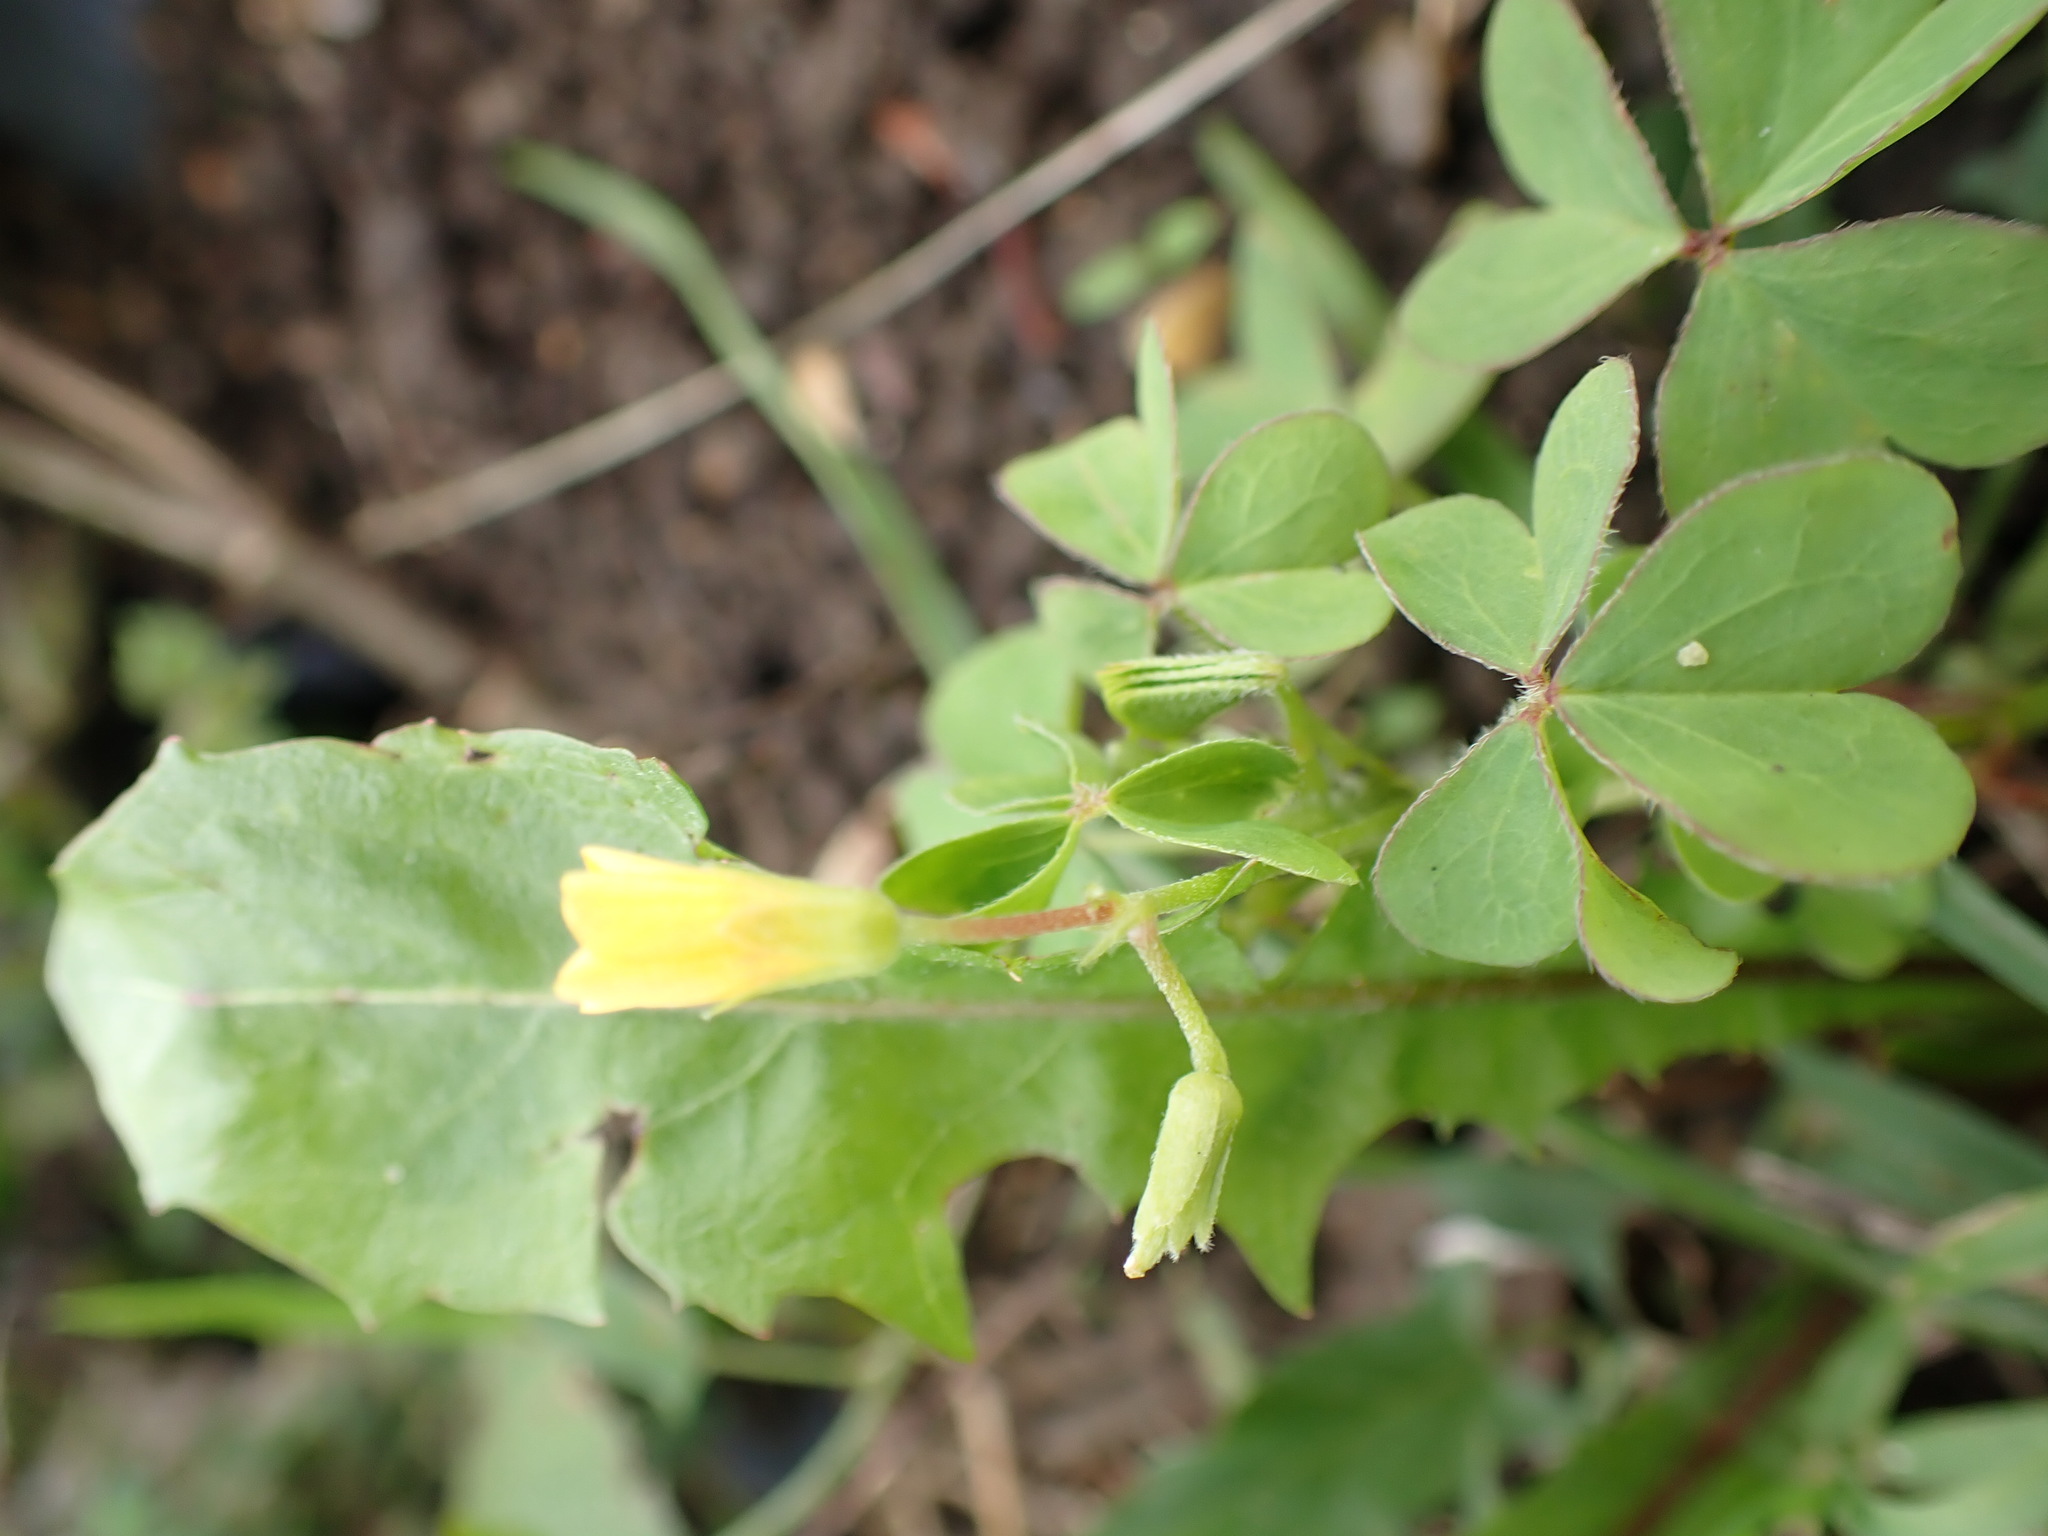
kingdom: Plantae
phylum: Tracheophyta
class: Magnoliopsida
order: Oxalidales
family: Oxalidaceae
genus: Oxalis
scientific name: Oxalis corniculata
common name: Procumbent yellow-sorrel
